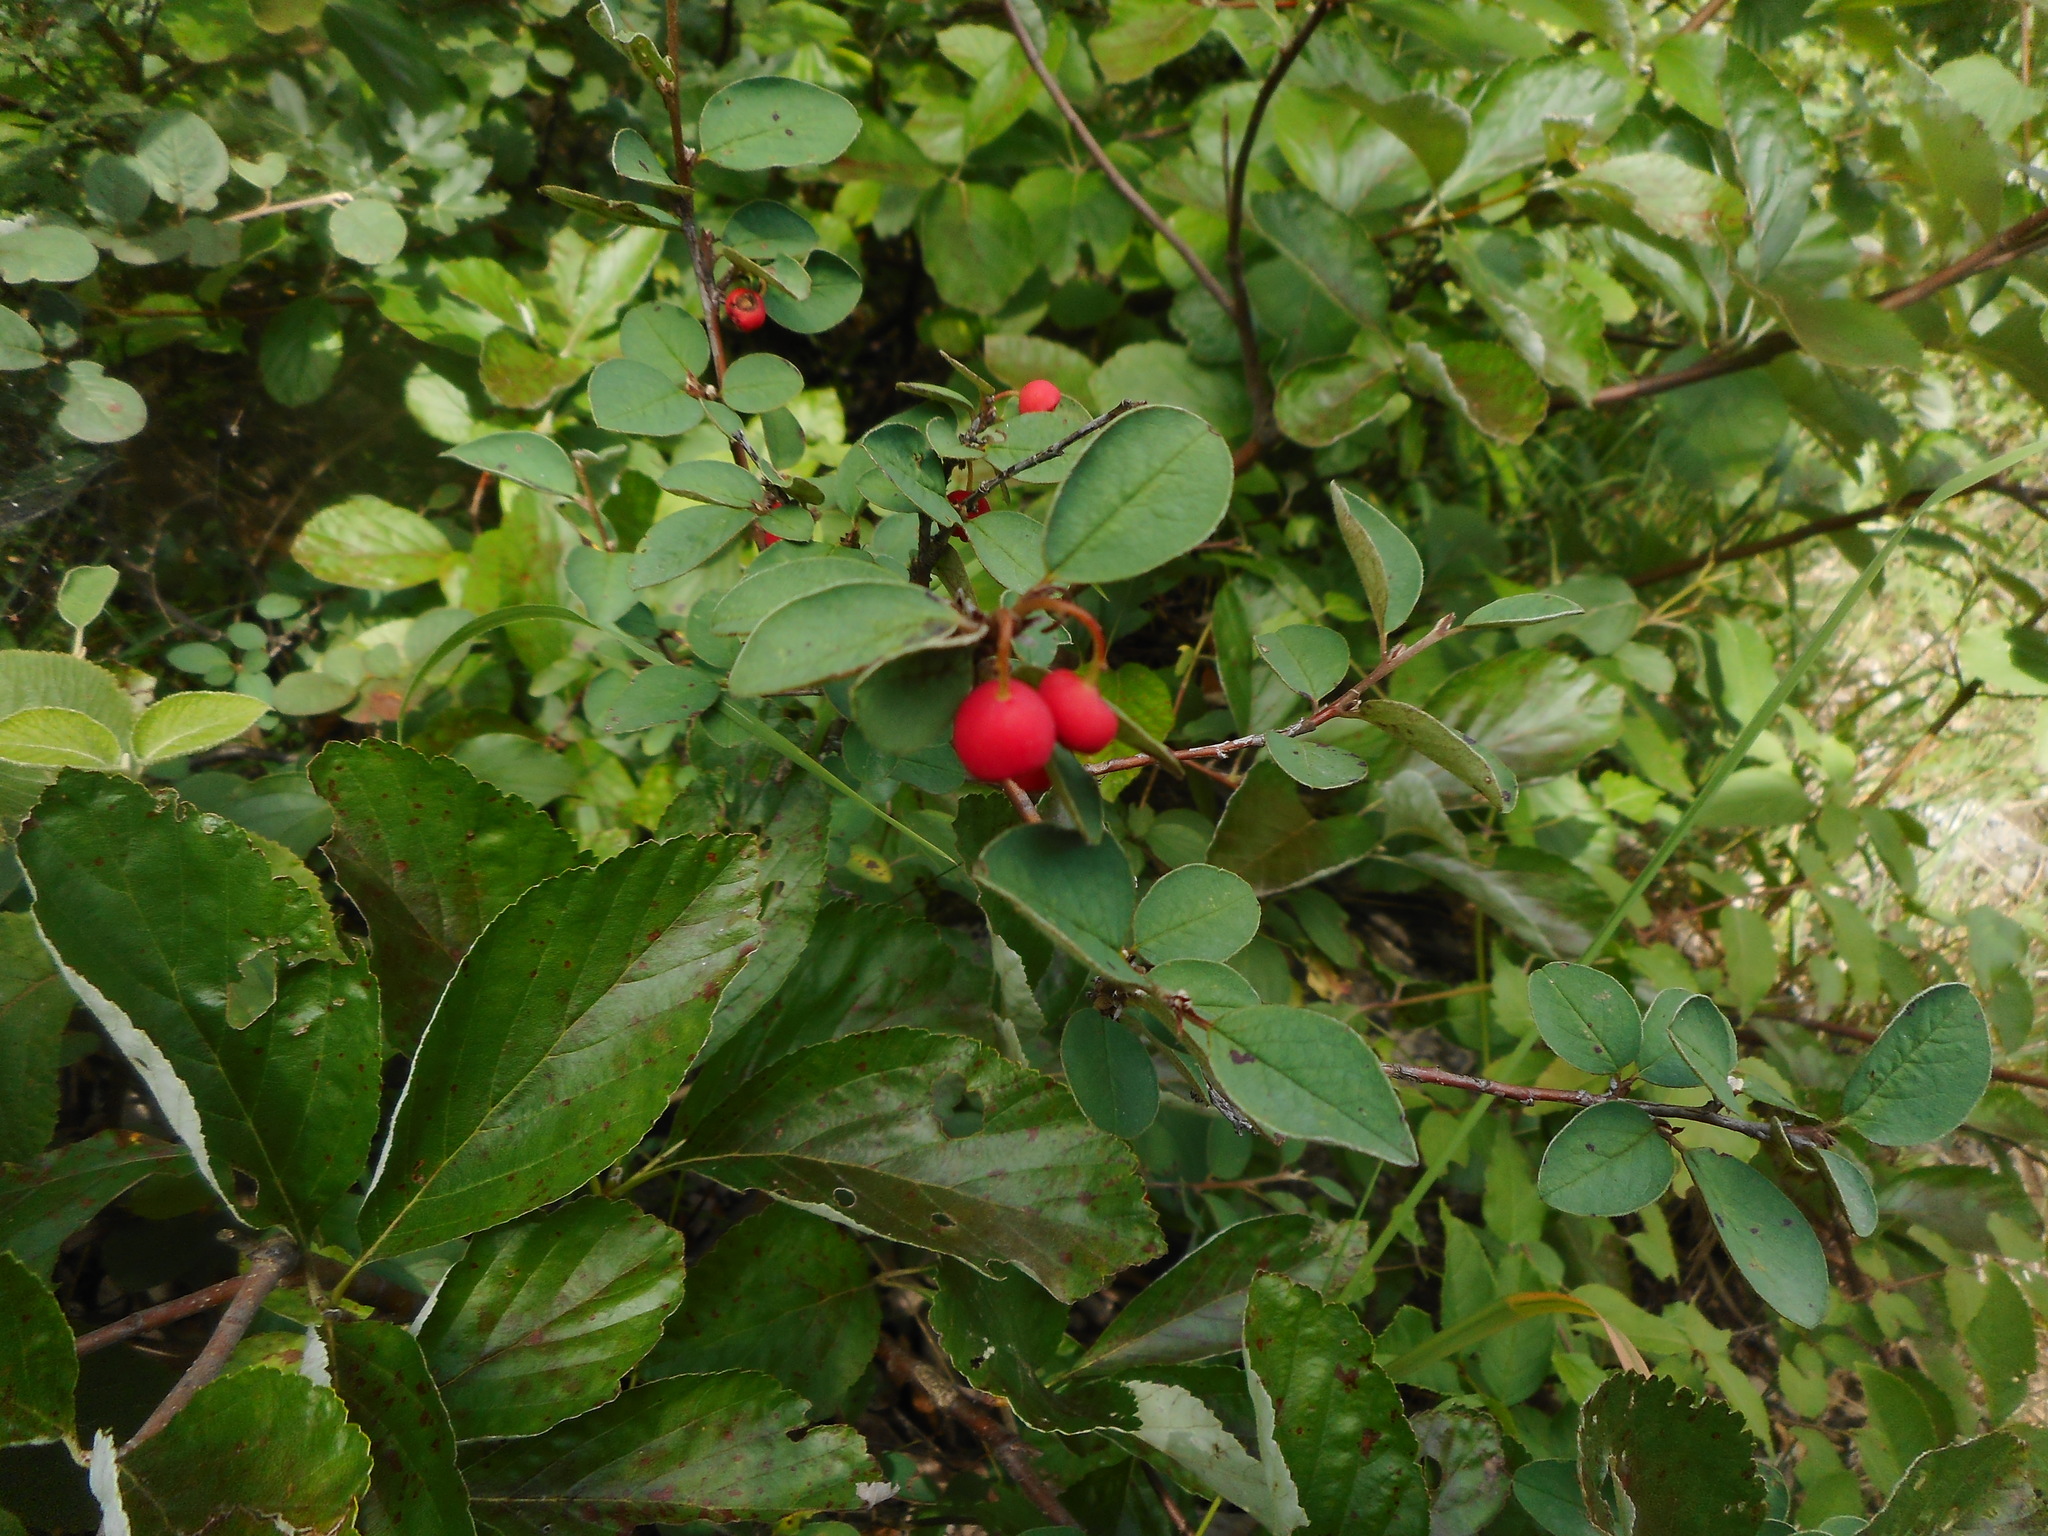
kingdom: Plantae
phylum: Tracheophyta
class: Magnoliopsida
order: Rosales
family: Rosaceae
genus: Cotoneaster
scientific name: Cotoneaster integerrimus
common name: Wild cotoneaster
